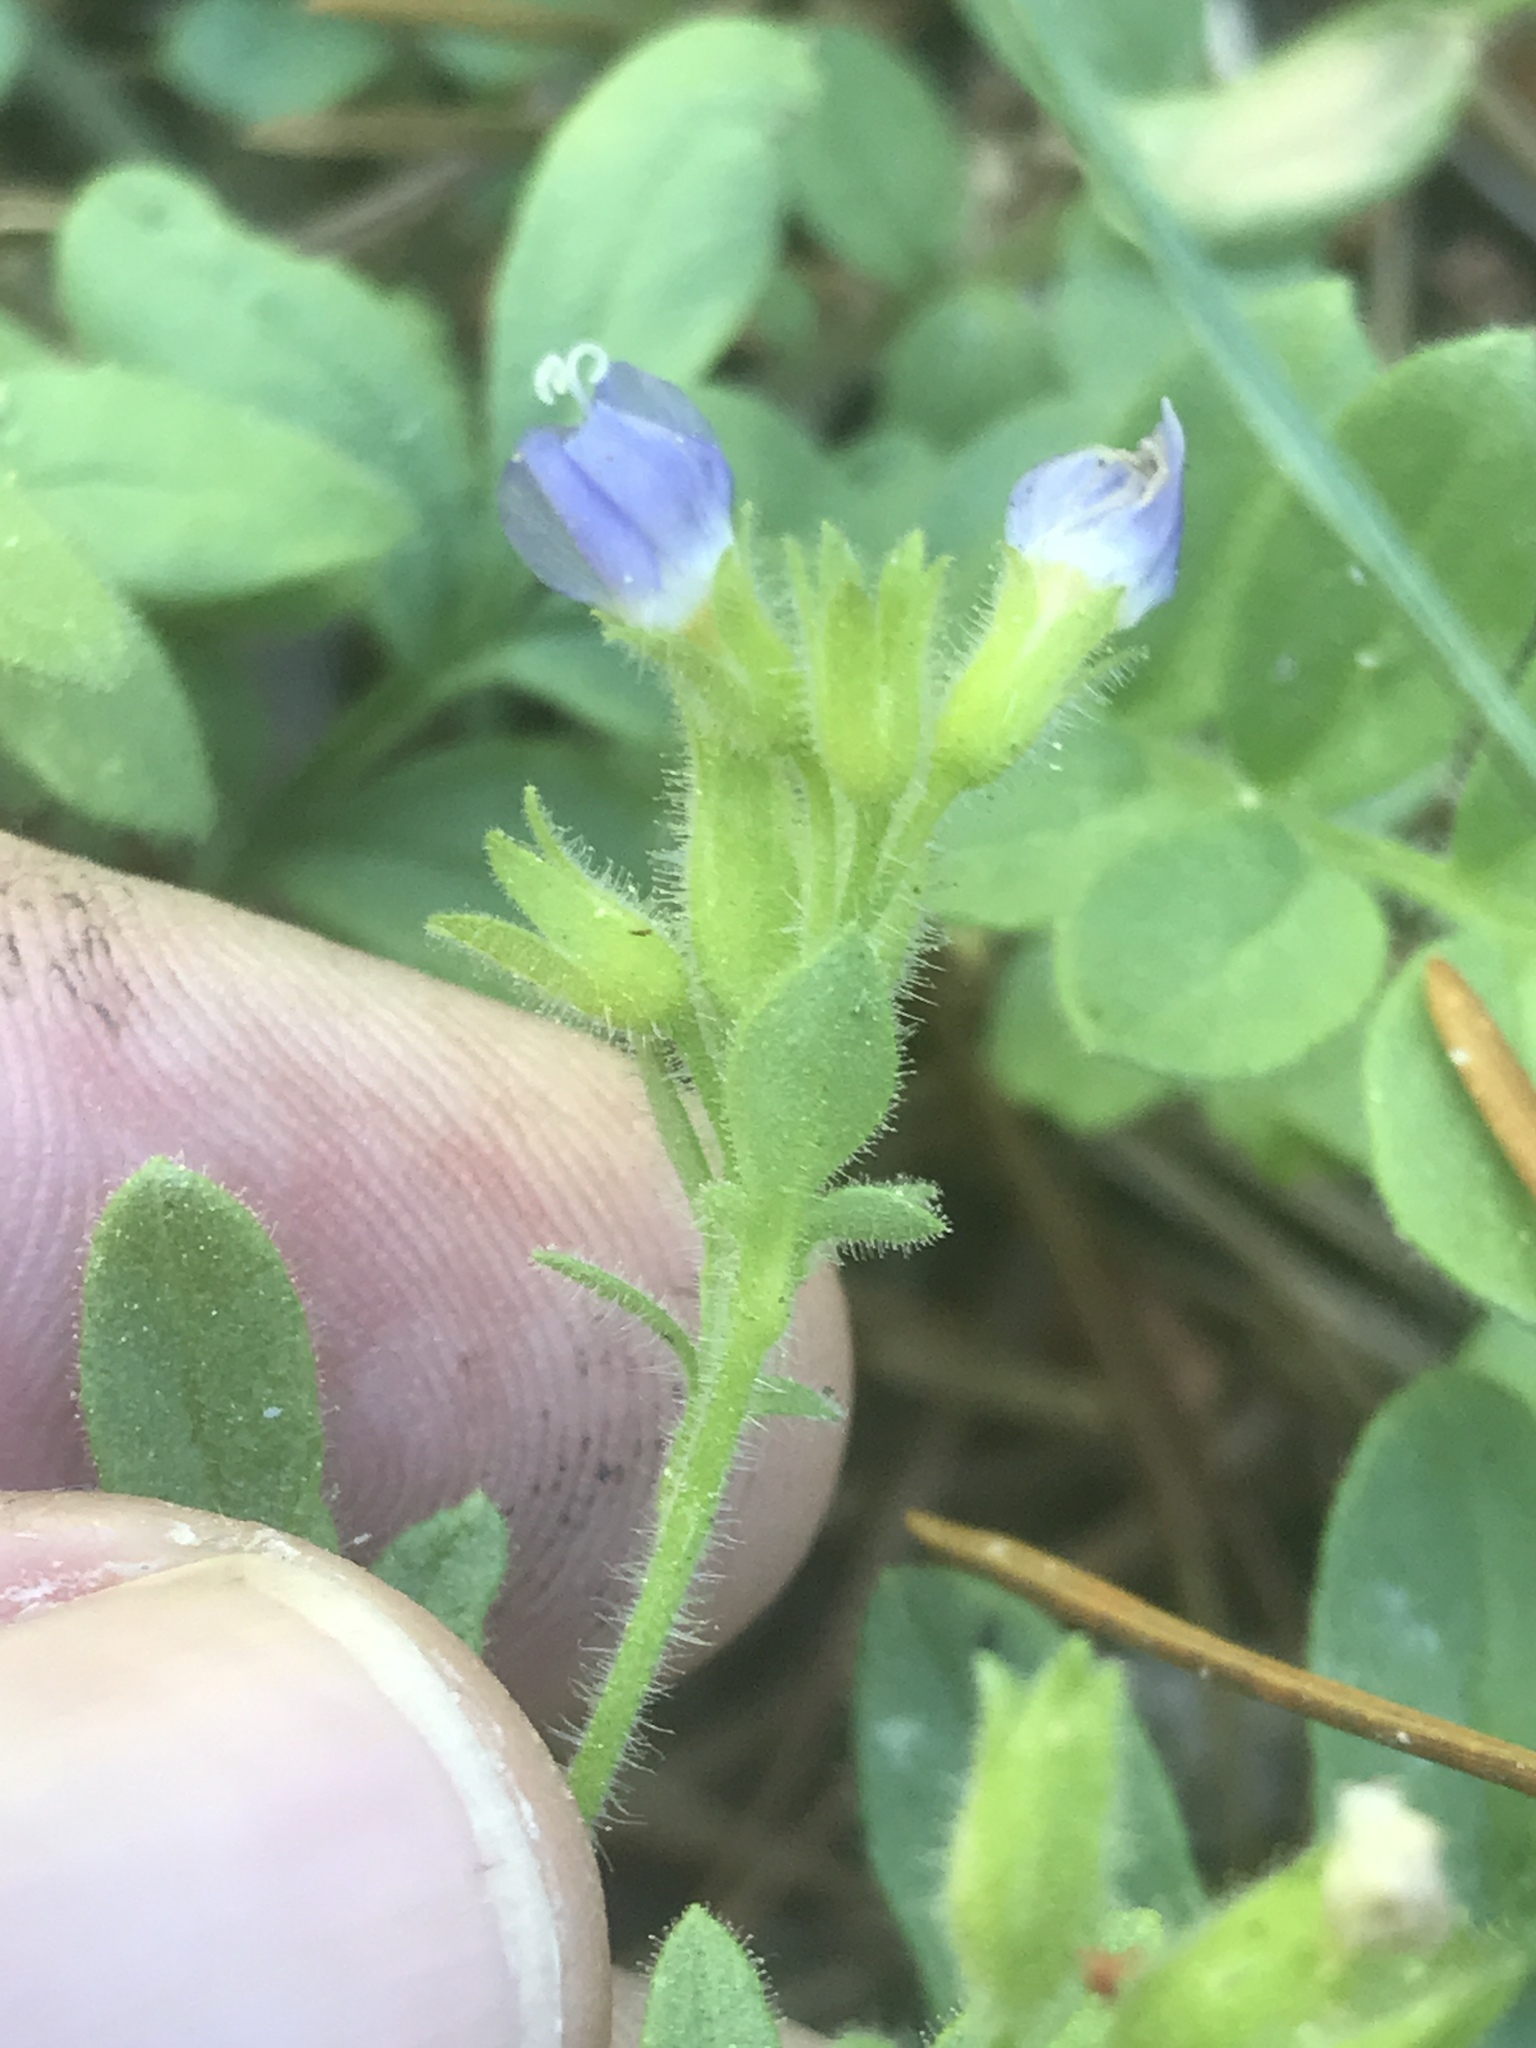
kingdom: Plantae
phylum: Tracheophyta
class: Magnoliopsida
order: Ericales
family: Polemoniaceae
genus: Polemonium
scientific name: Polemonium californicum
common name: California jacob's ladder
